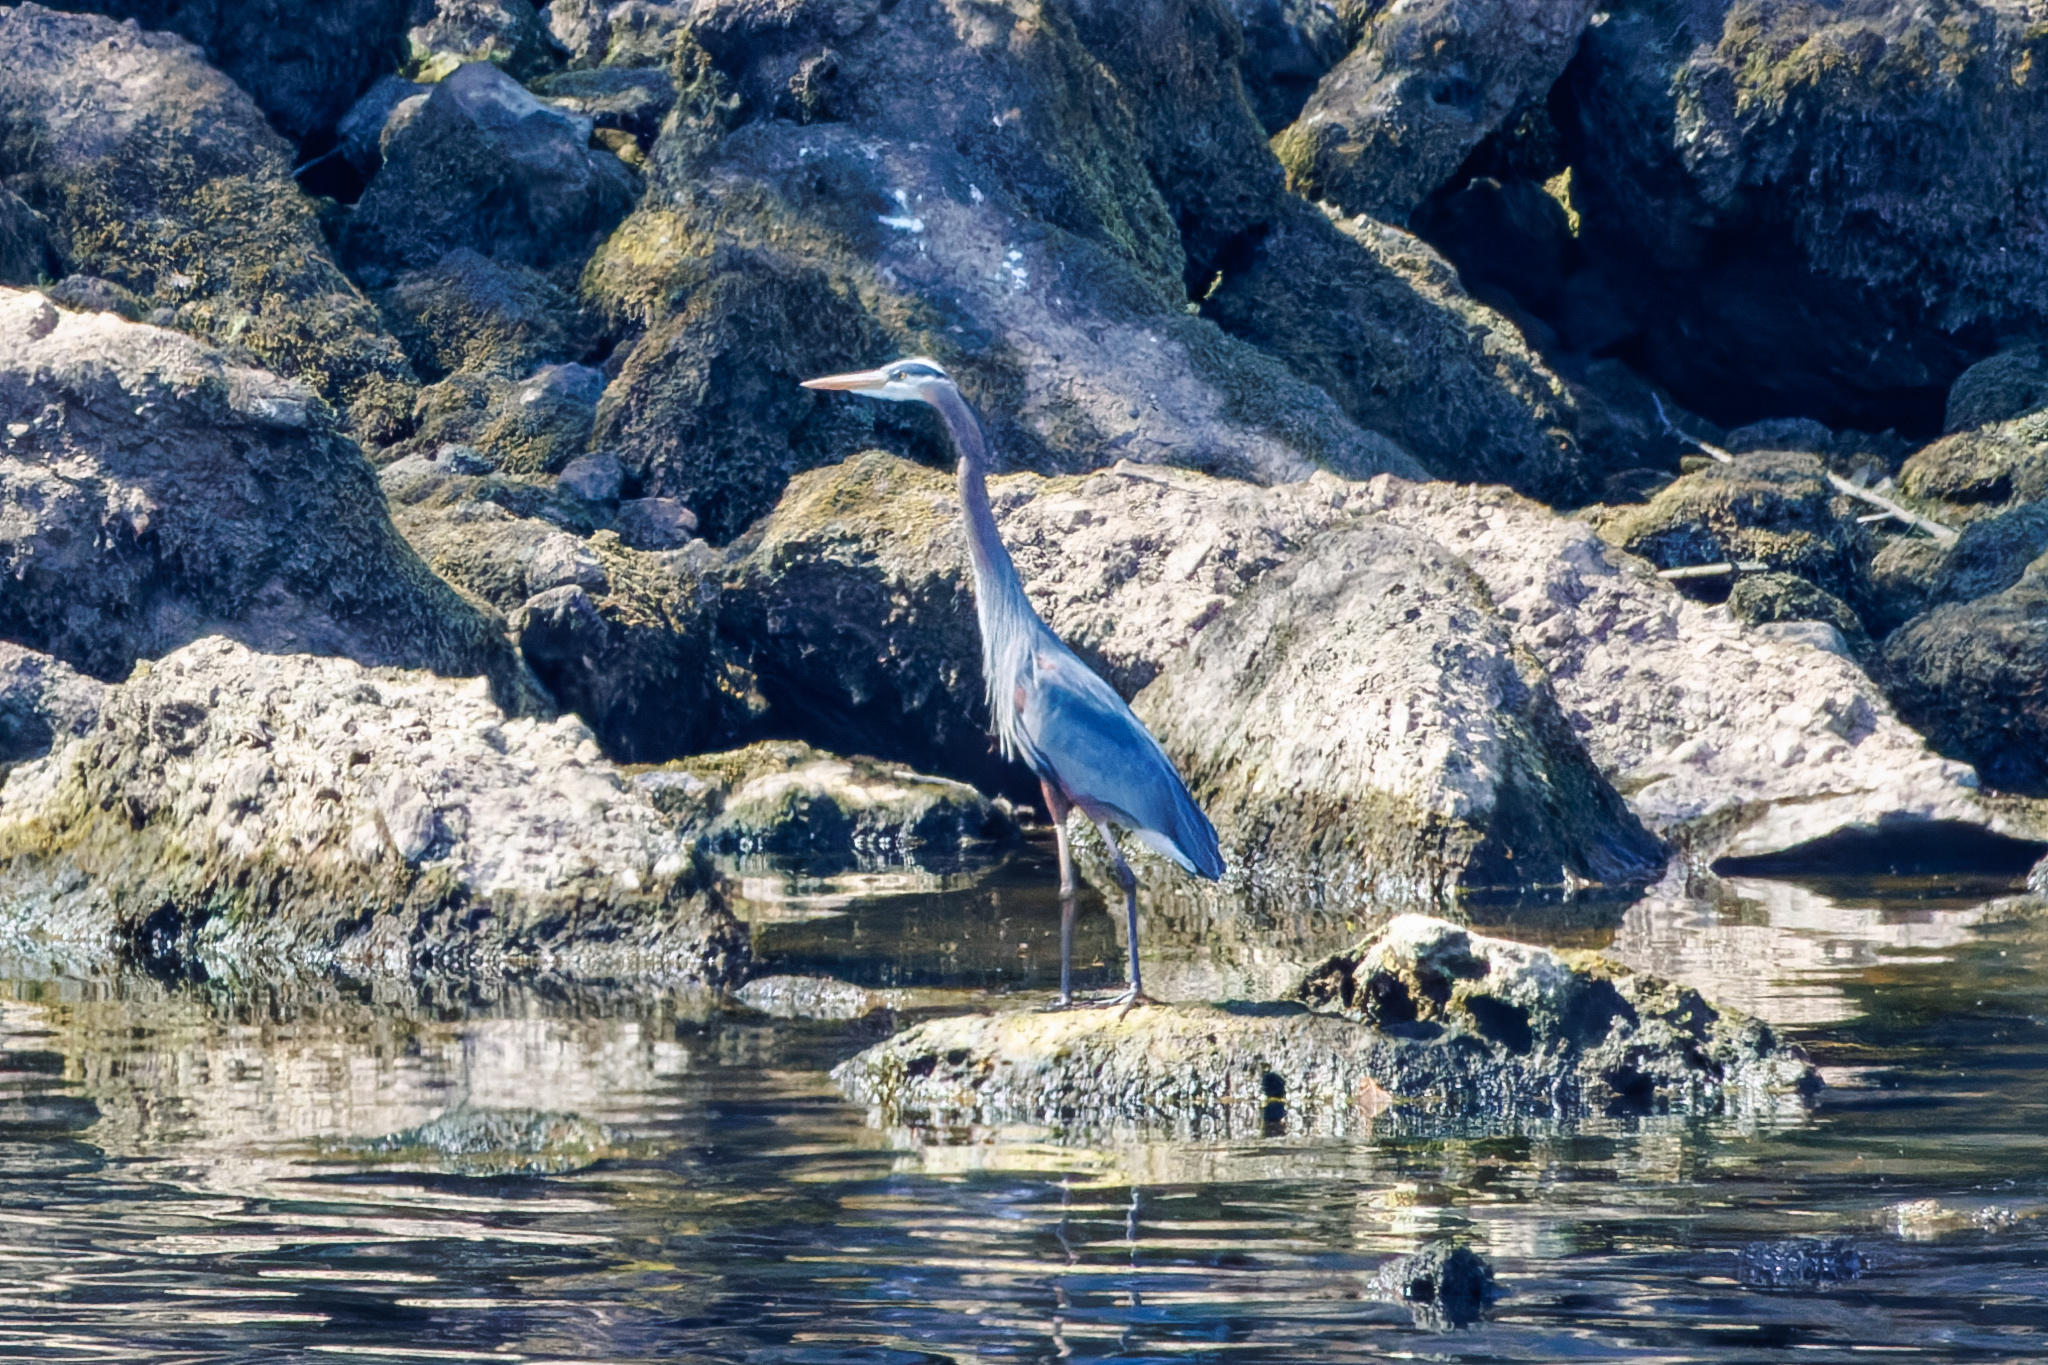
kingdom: Animalia
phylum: Chordata
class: Aves
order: Pelecaniformes
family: Ardeidae
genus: Ardea
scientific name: Ardea herodias
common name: Great blue heron
